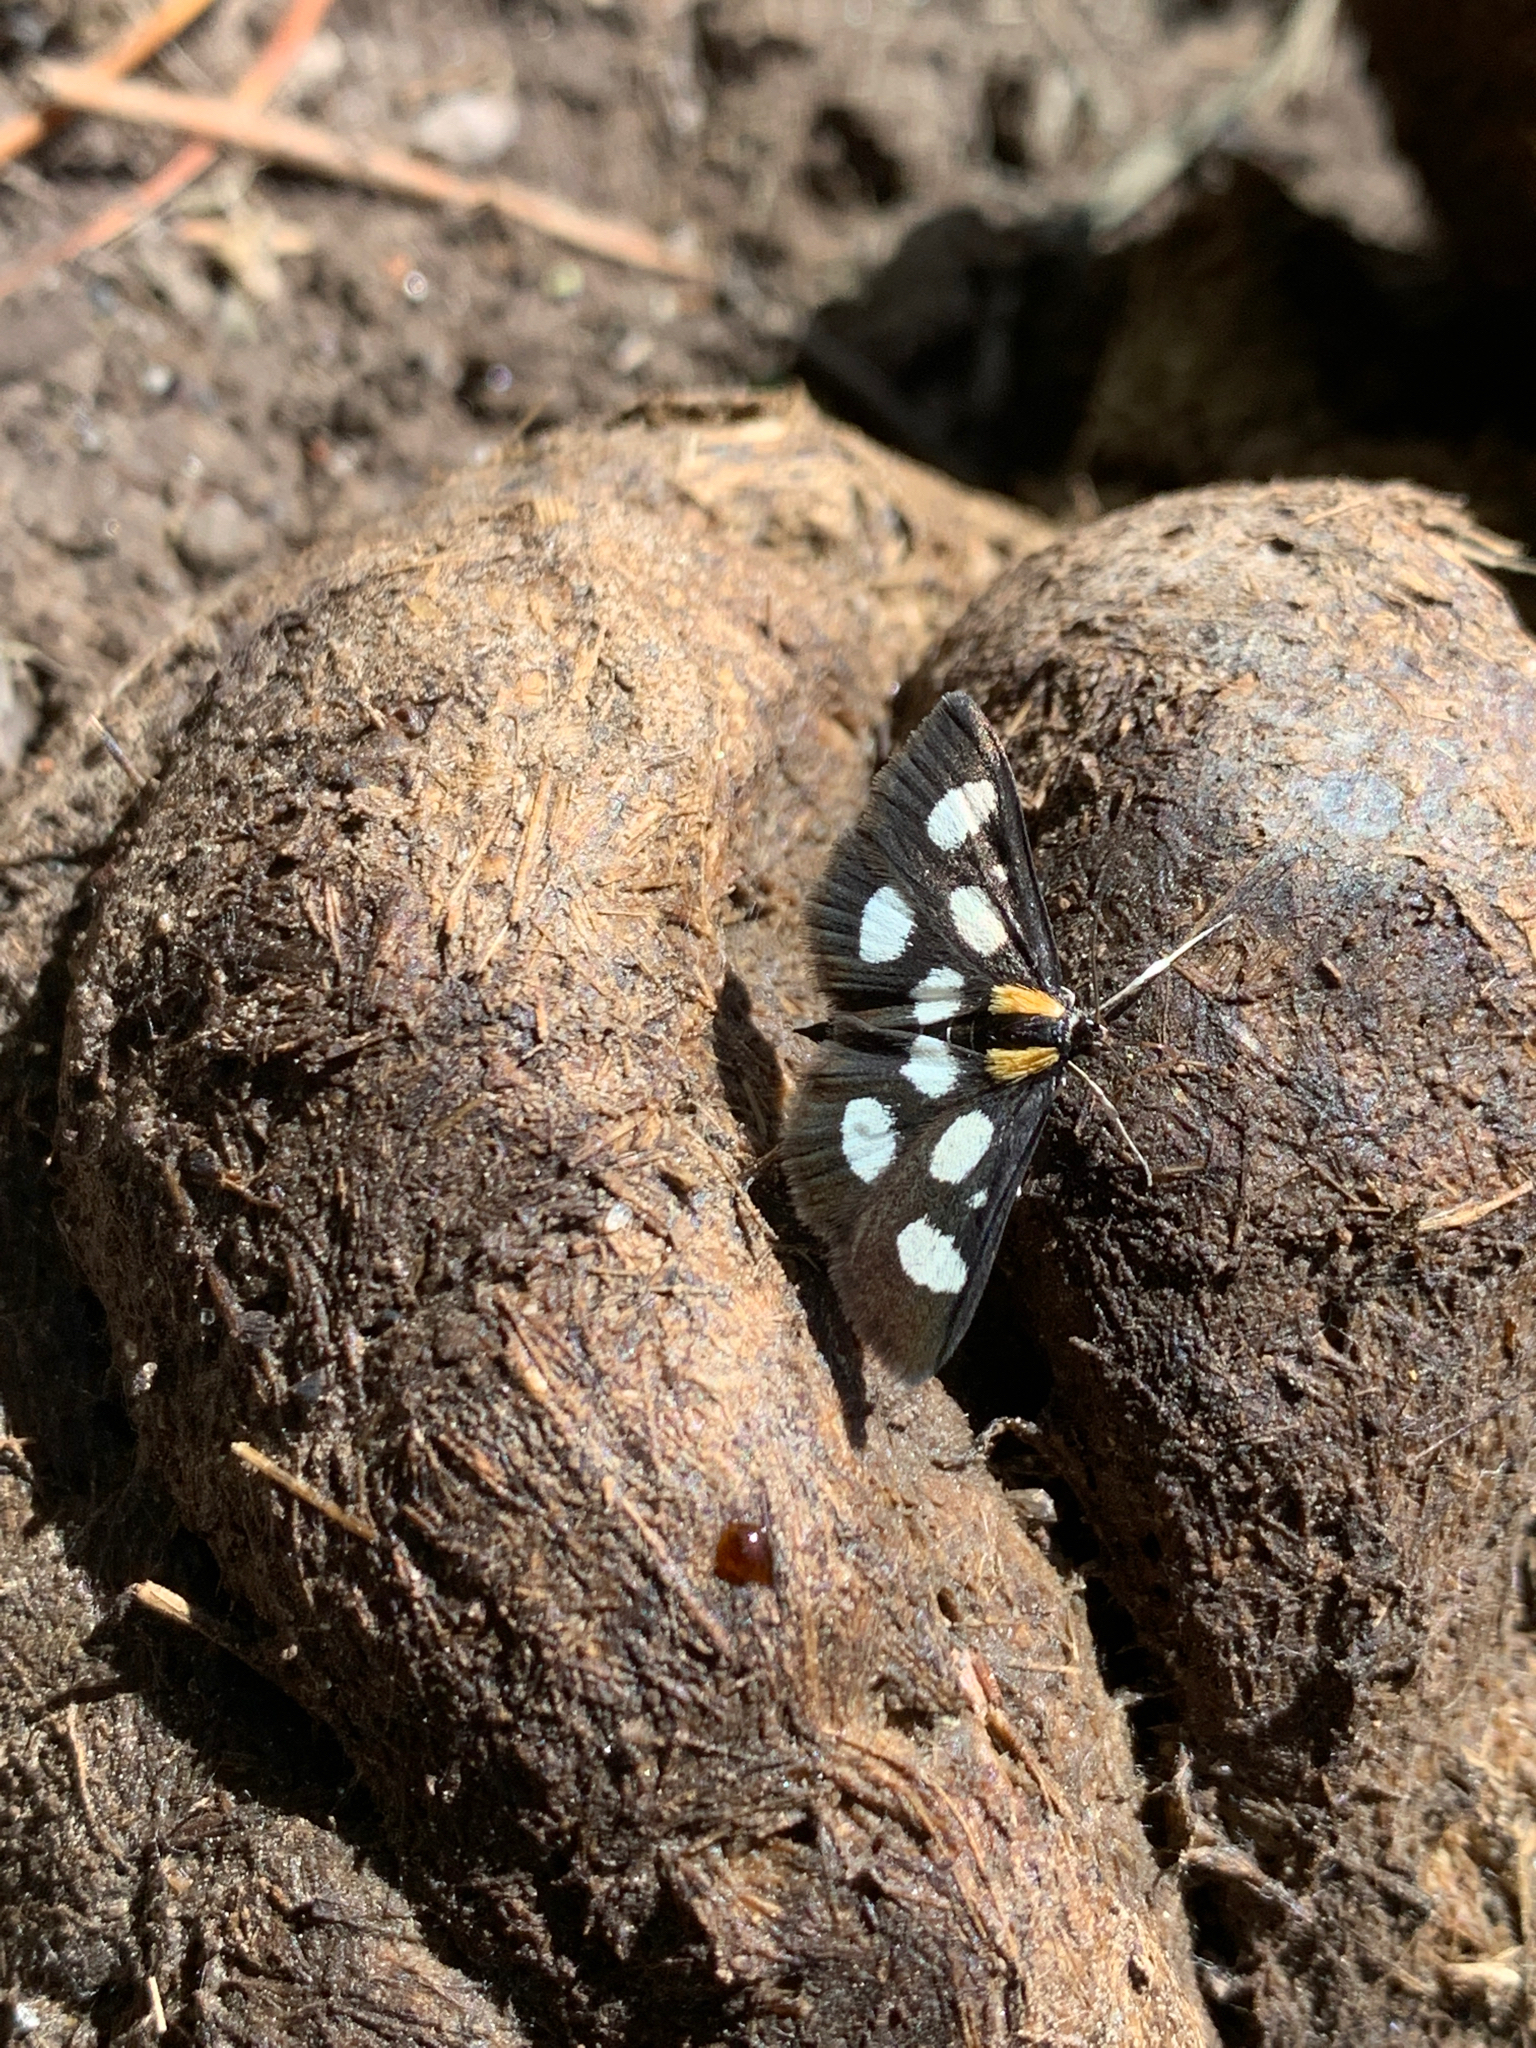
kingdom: Animalia
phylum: Arthropoda
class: Insecta
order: Lepidoptera
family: Crambidae
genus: Anania
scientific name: Anania funebris
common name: White-spotted sable moth
